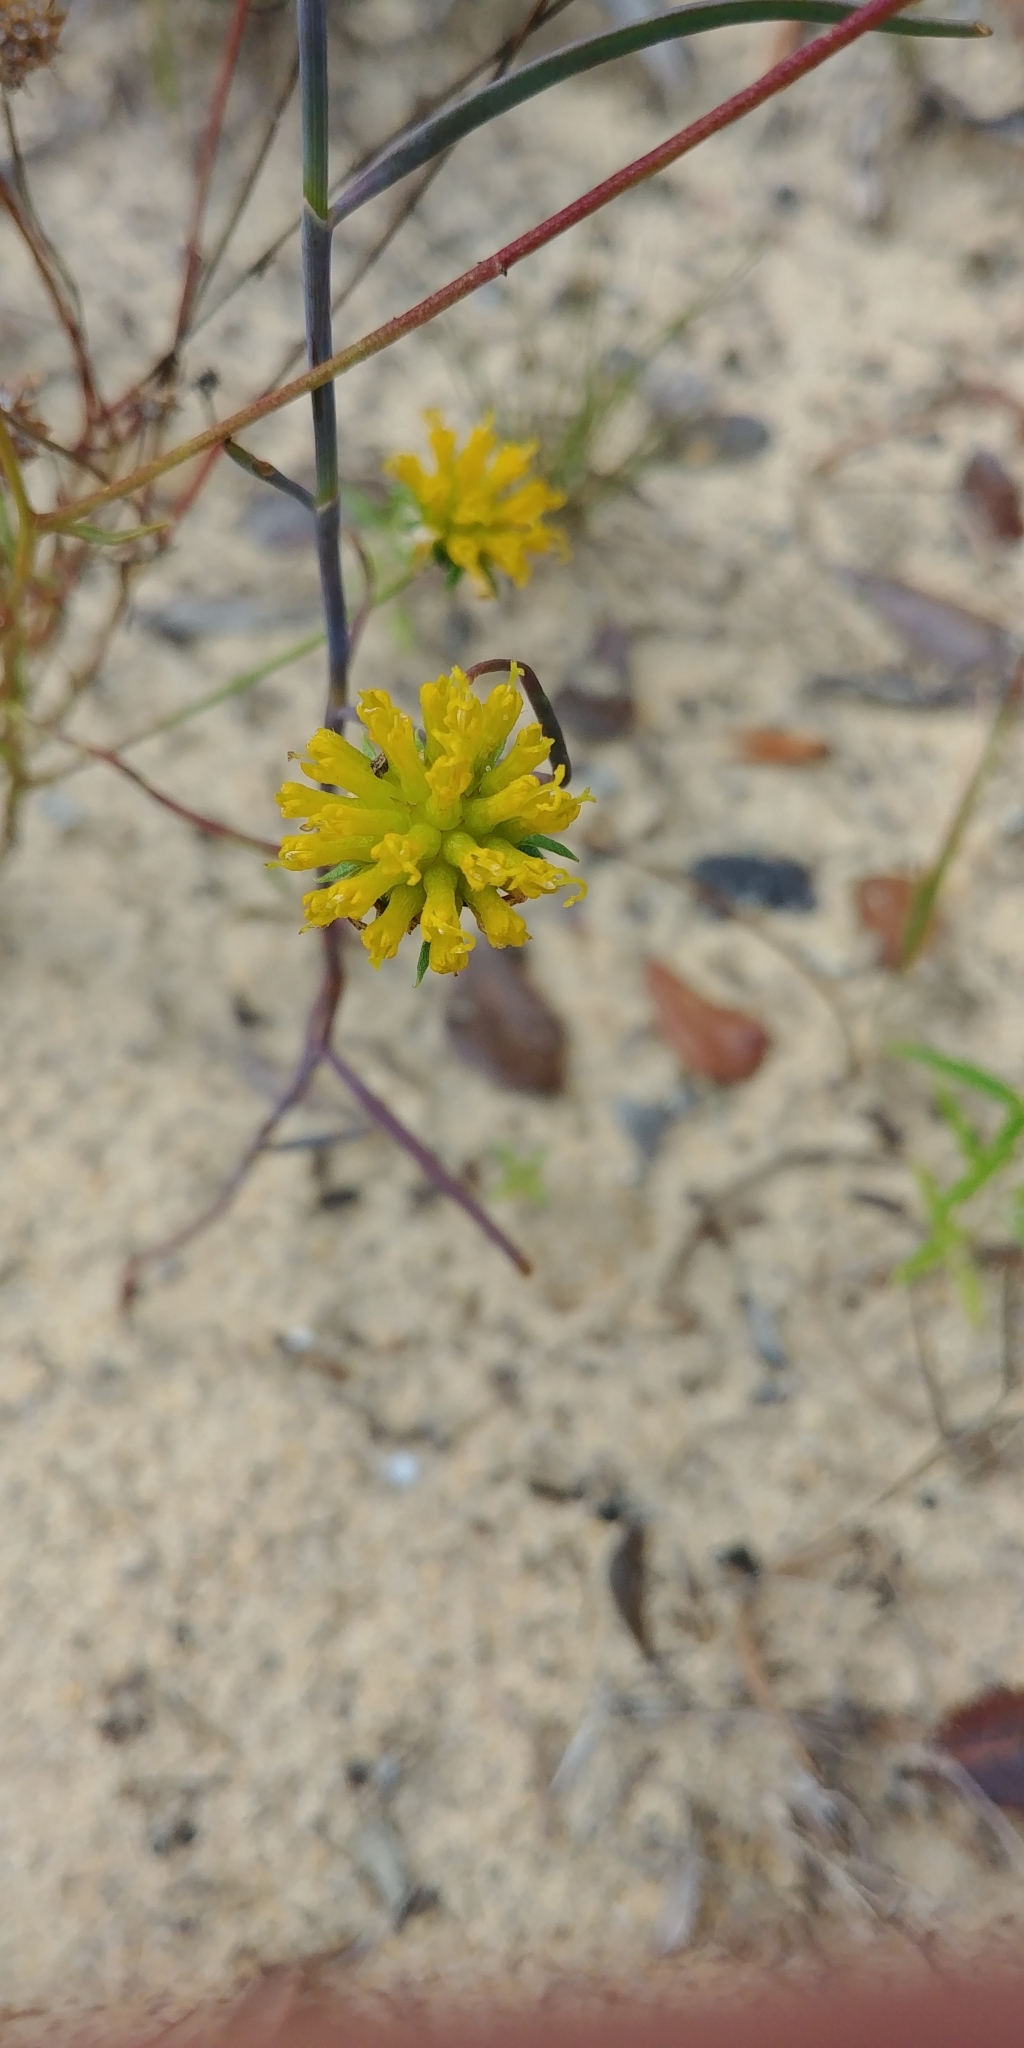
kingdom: Plantae
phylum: Tracheophyta
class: Magnoliopsida
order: Asterales
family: Asteraceae
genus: Balduina
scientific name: Balduina angustifolia
